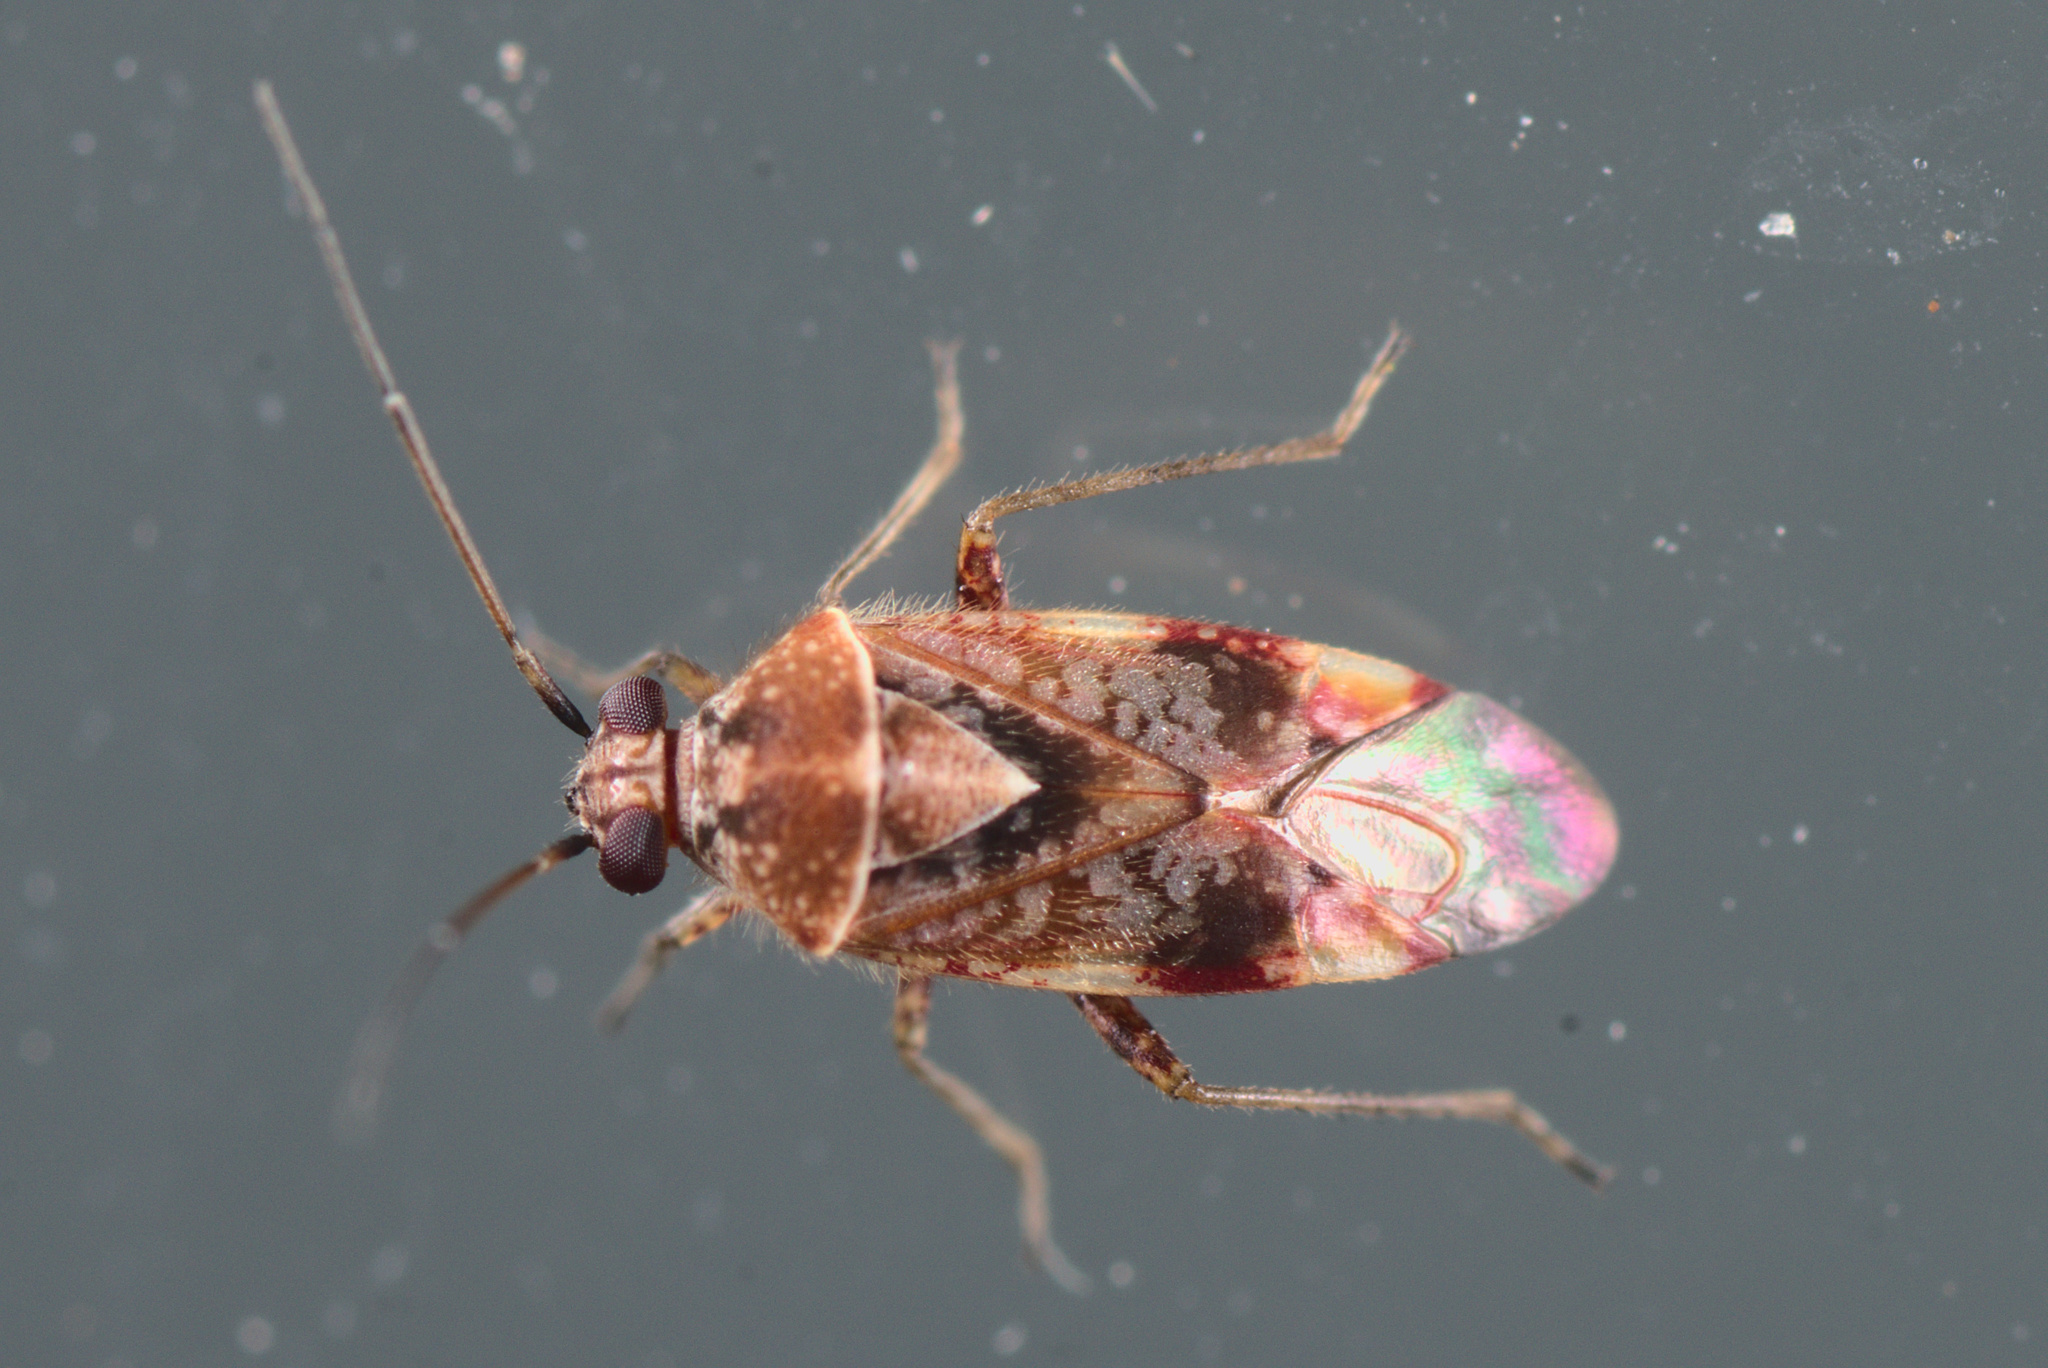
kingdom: Animalia
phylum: Arthropoda
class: Insecta
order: Hemiptera
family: Miridae
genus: Tinginotum
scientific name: Tinginotum minutum
